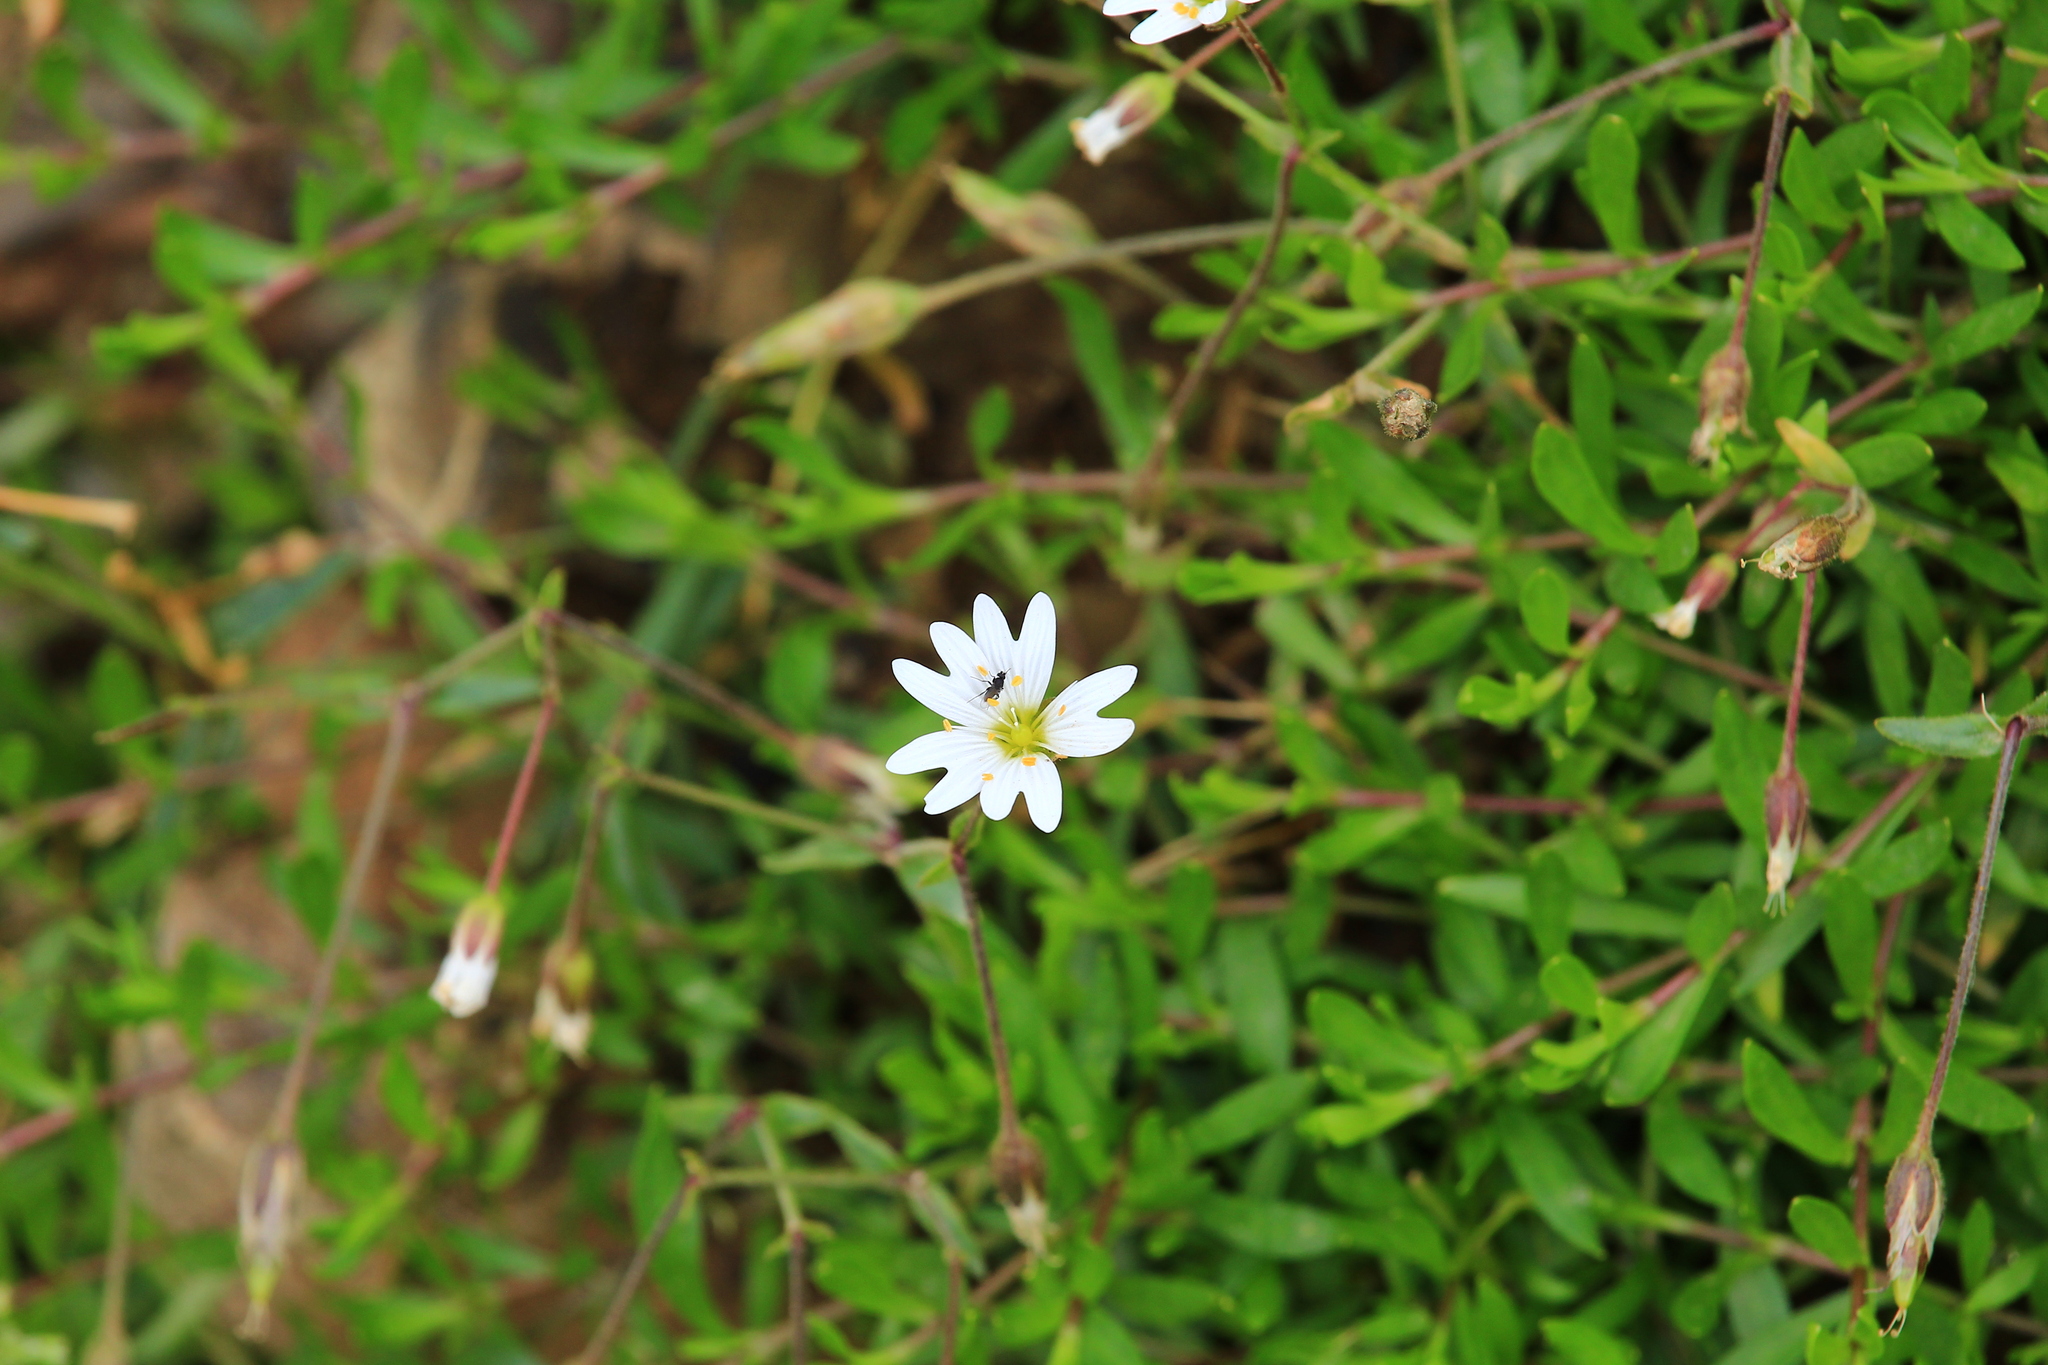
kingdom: Plantae
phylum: Tracheophyta
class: Magnoliopsida
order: Caryophyllales
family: Caryophyllaceae
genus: Dichodon
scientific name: Dichodon cerastoides
